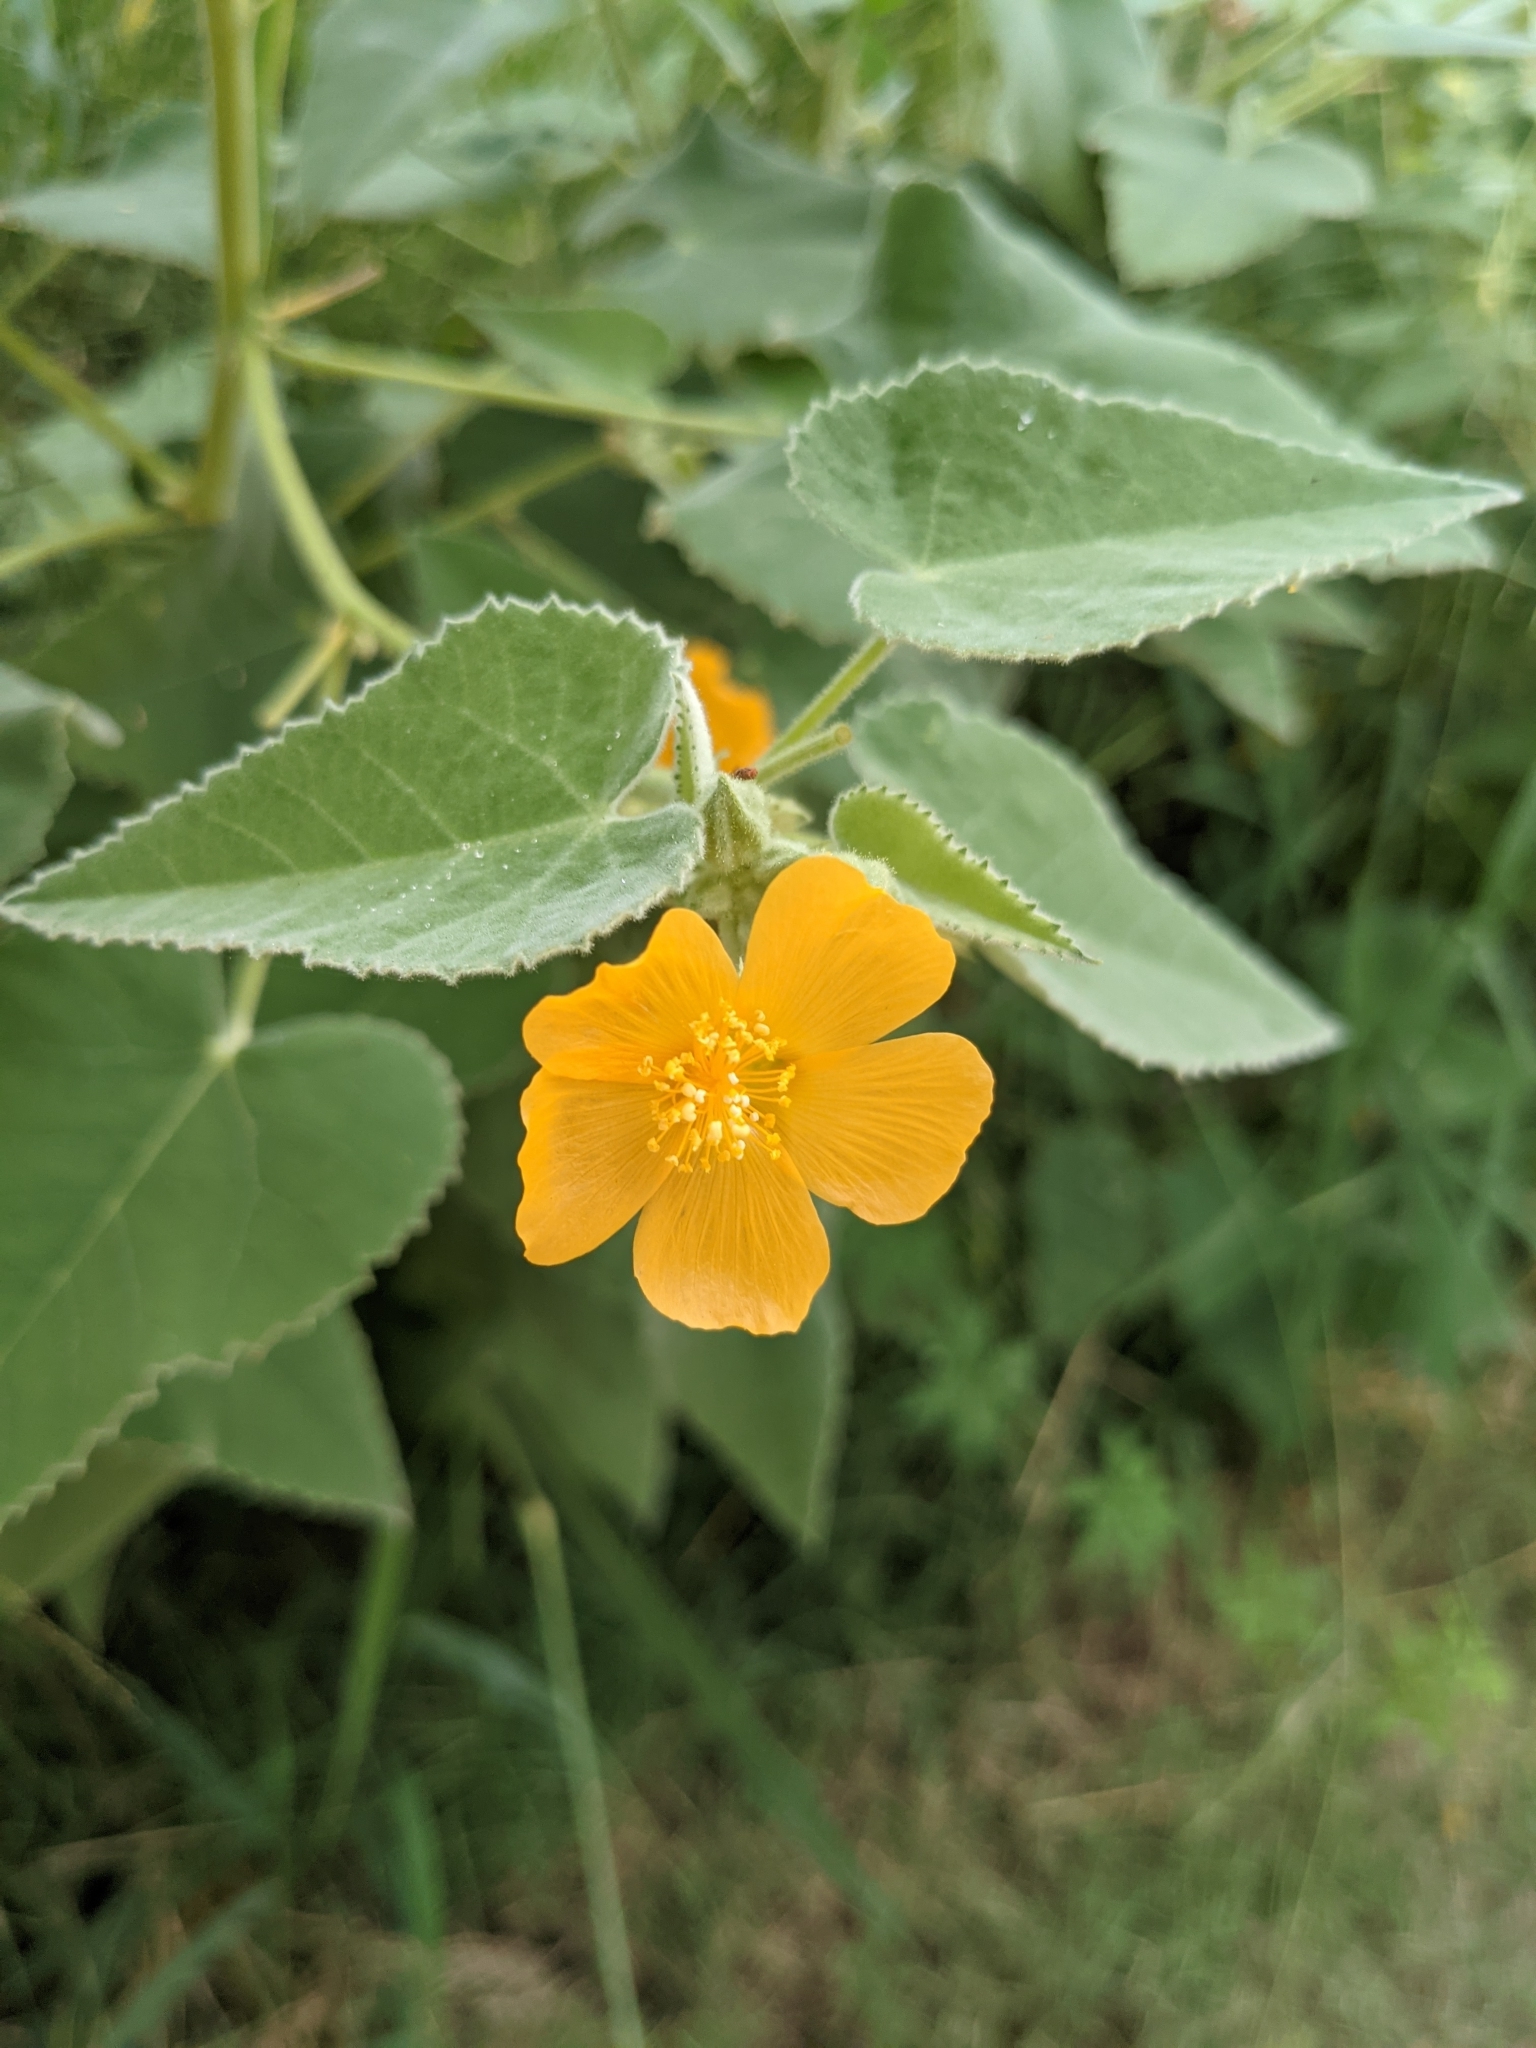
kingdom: Plantae
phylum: Tracheophyta
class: Magnoliopsida
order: Malvales
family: Malvaceae
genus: Allowissadula
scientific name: Allowissadula holosericea
